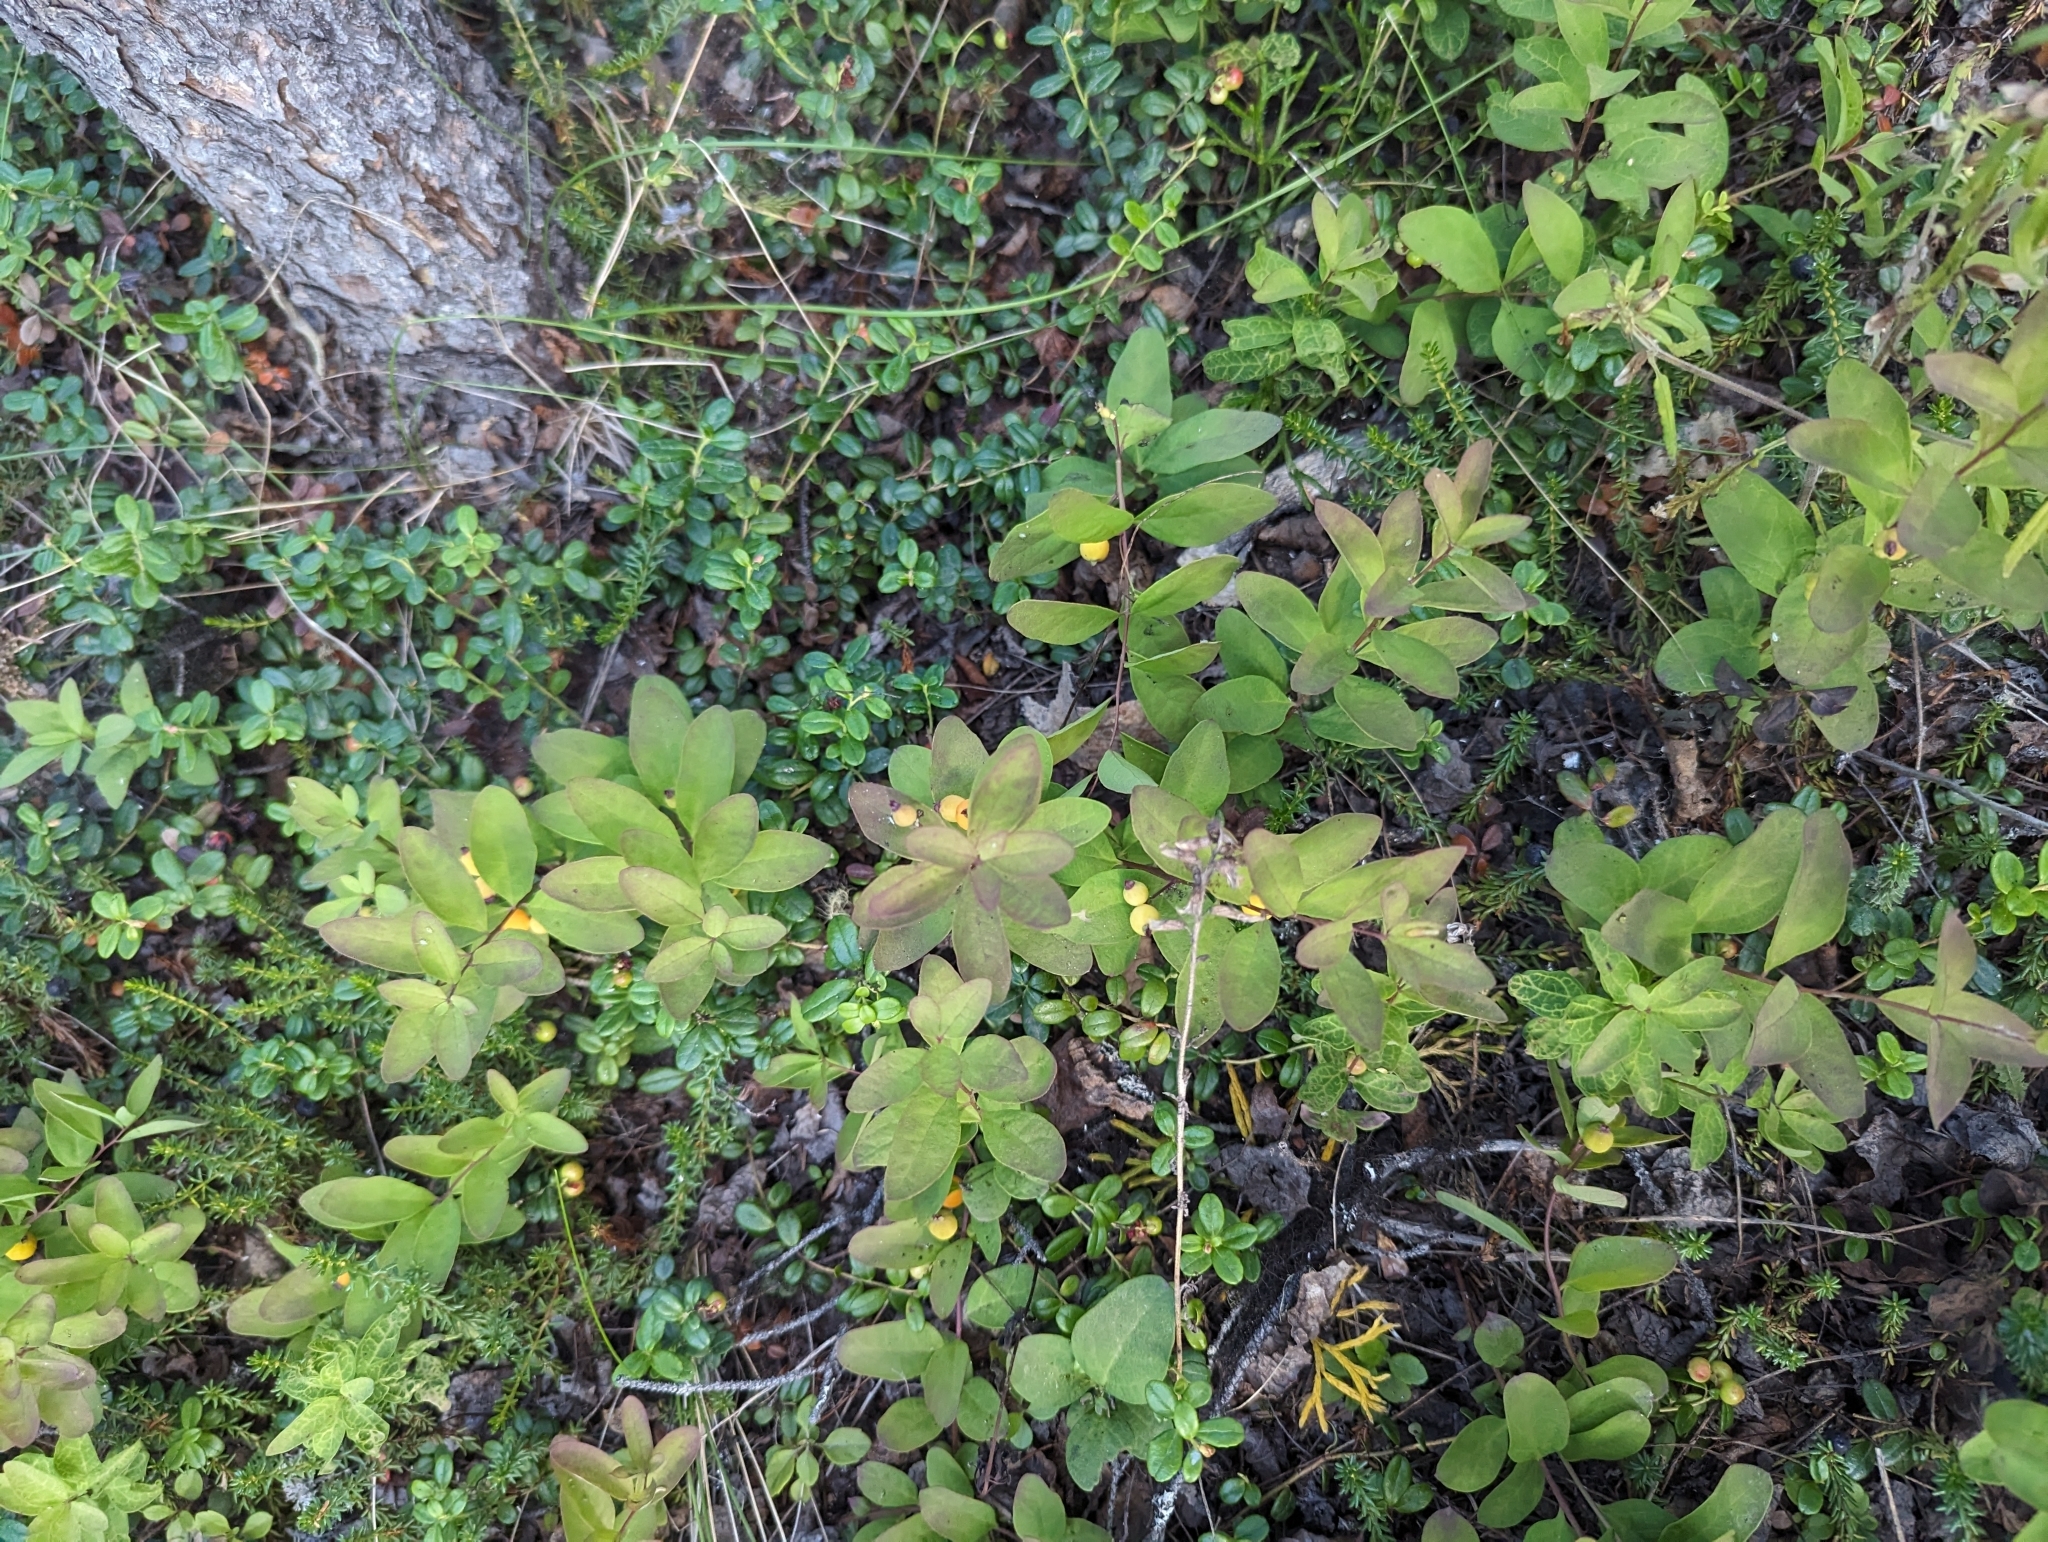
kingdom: Plantae
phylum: Tracheophyta
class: Magnoliopsida
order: Santalales
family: Comandraceae
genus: Geocaulon
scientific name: Geocaulon lividum
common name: Earthberry
